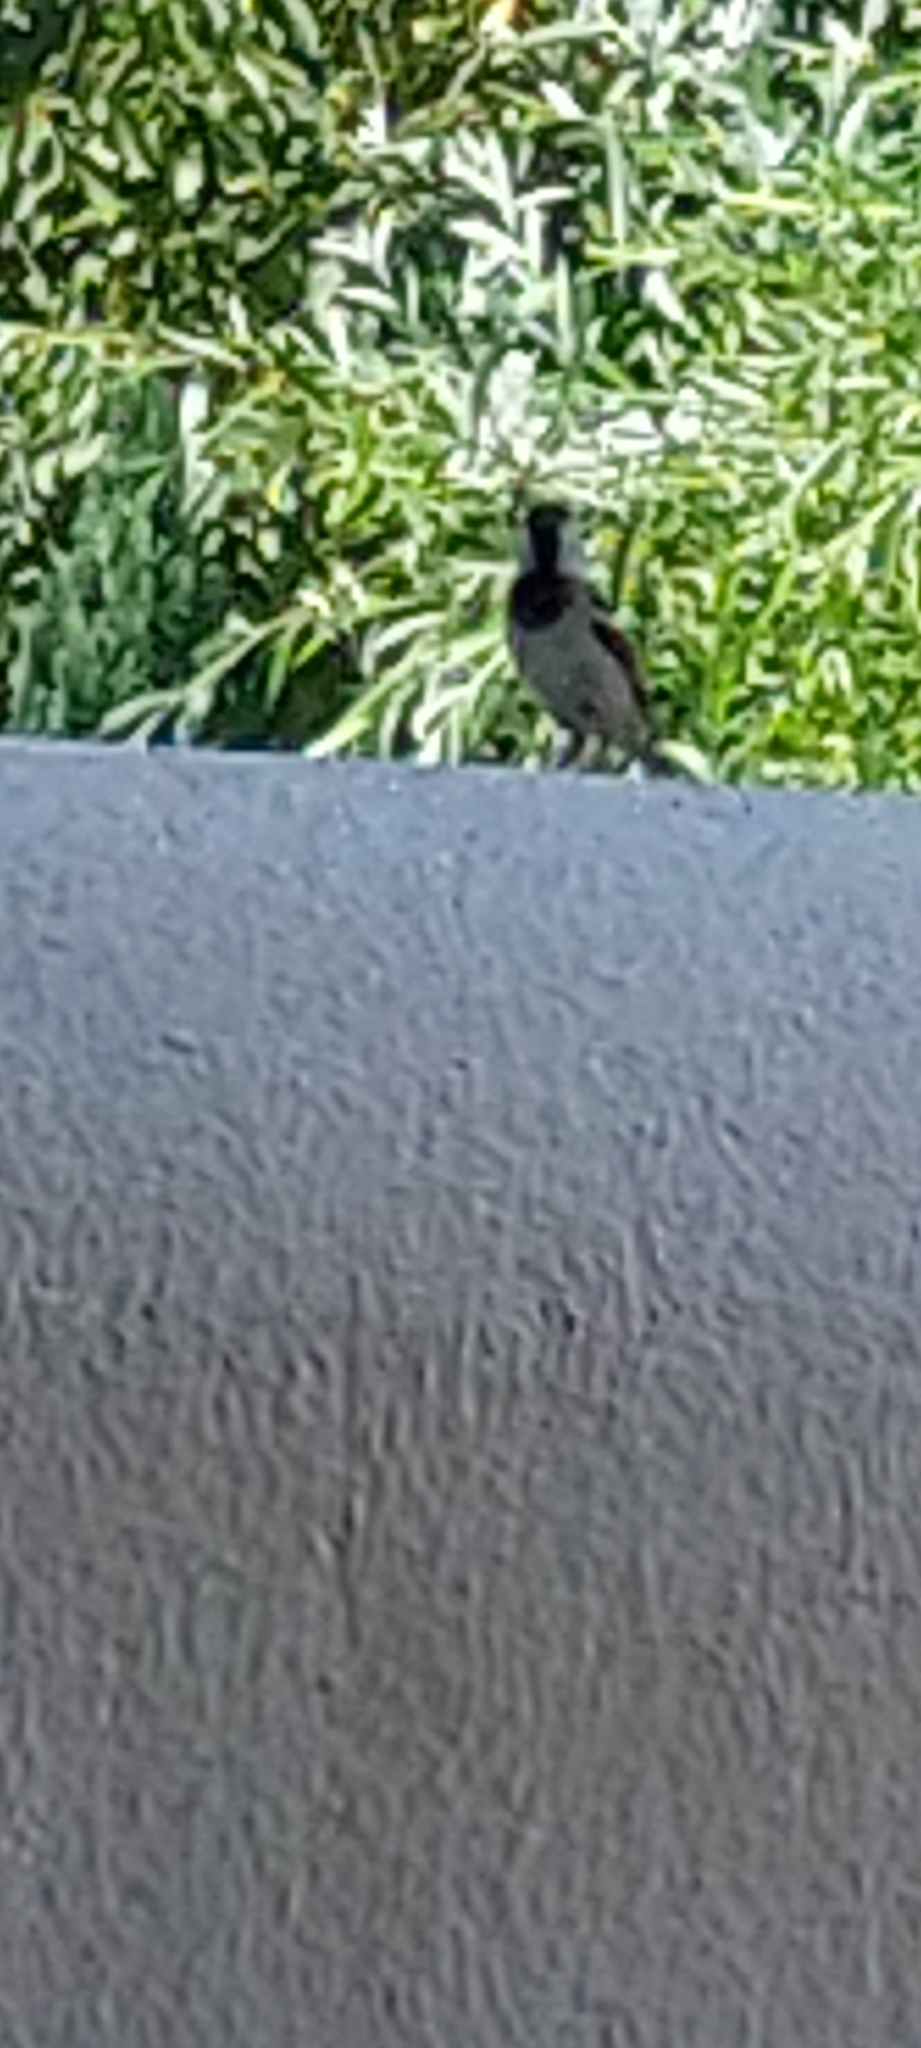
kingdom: Animalia
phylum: Chordata
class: Aves
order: Passeriformes
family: Passeridae
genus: Passer
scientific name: Passer domesticus
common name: House sparrow
